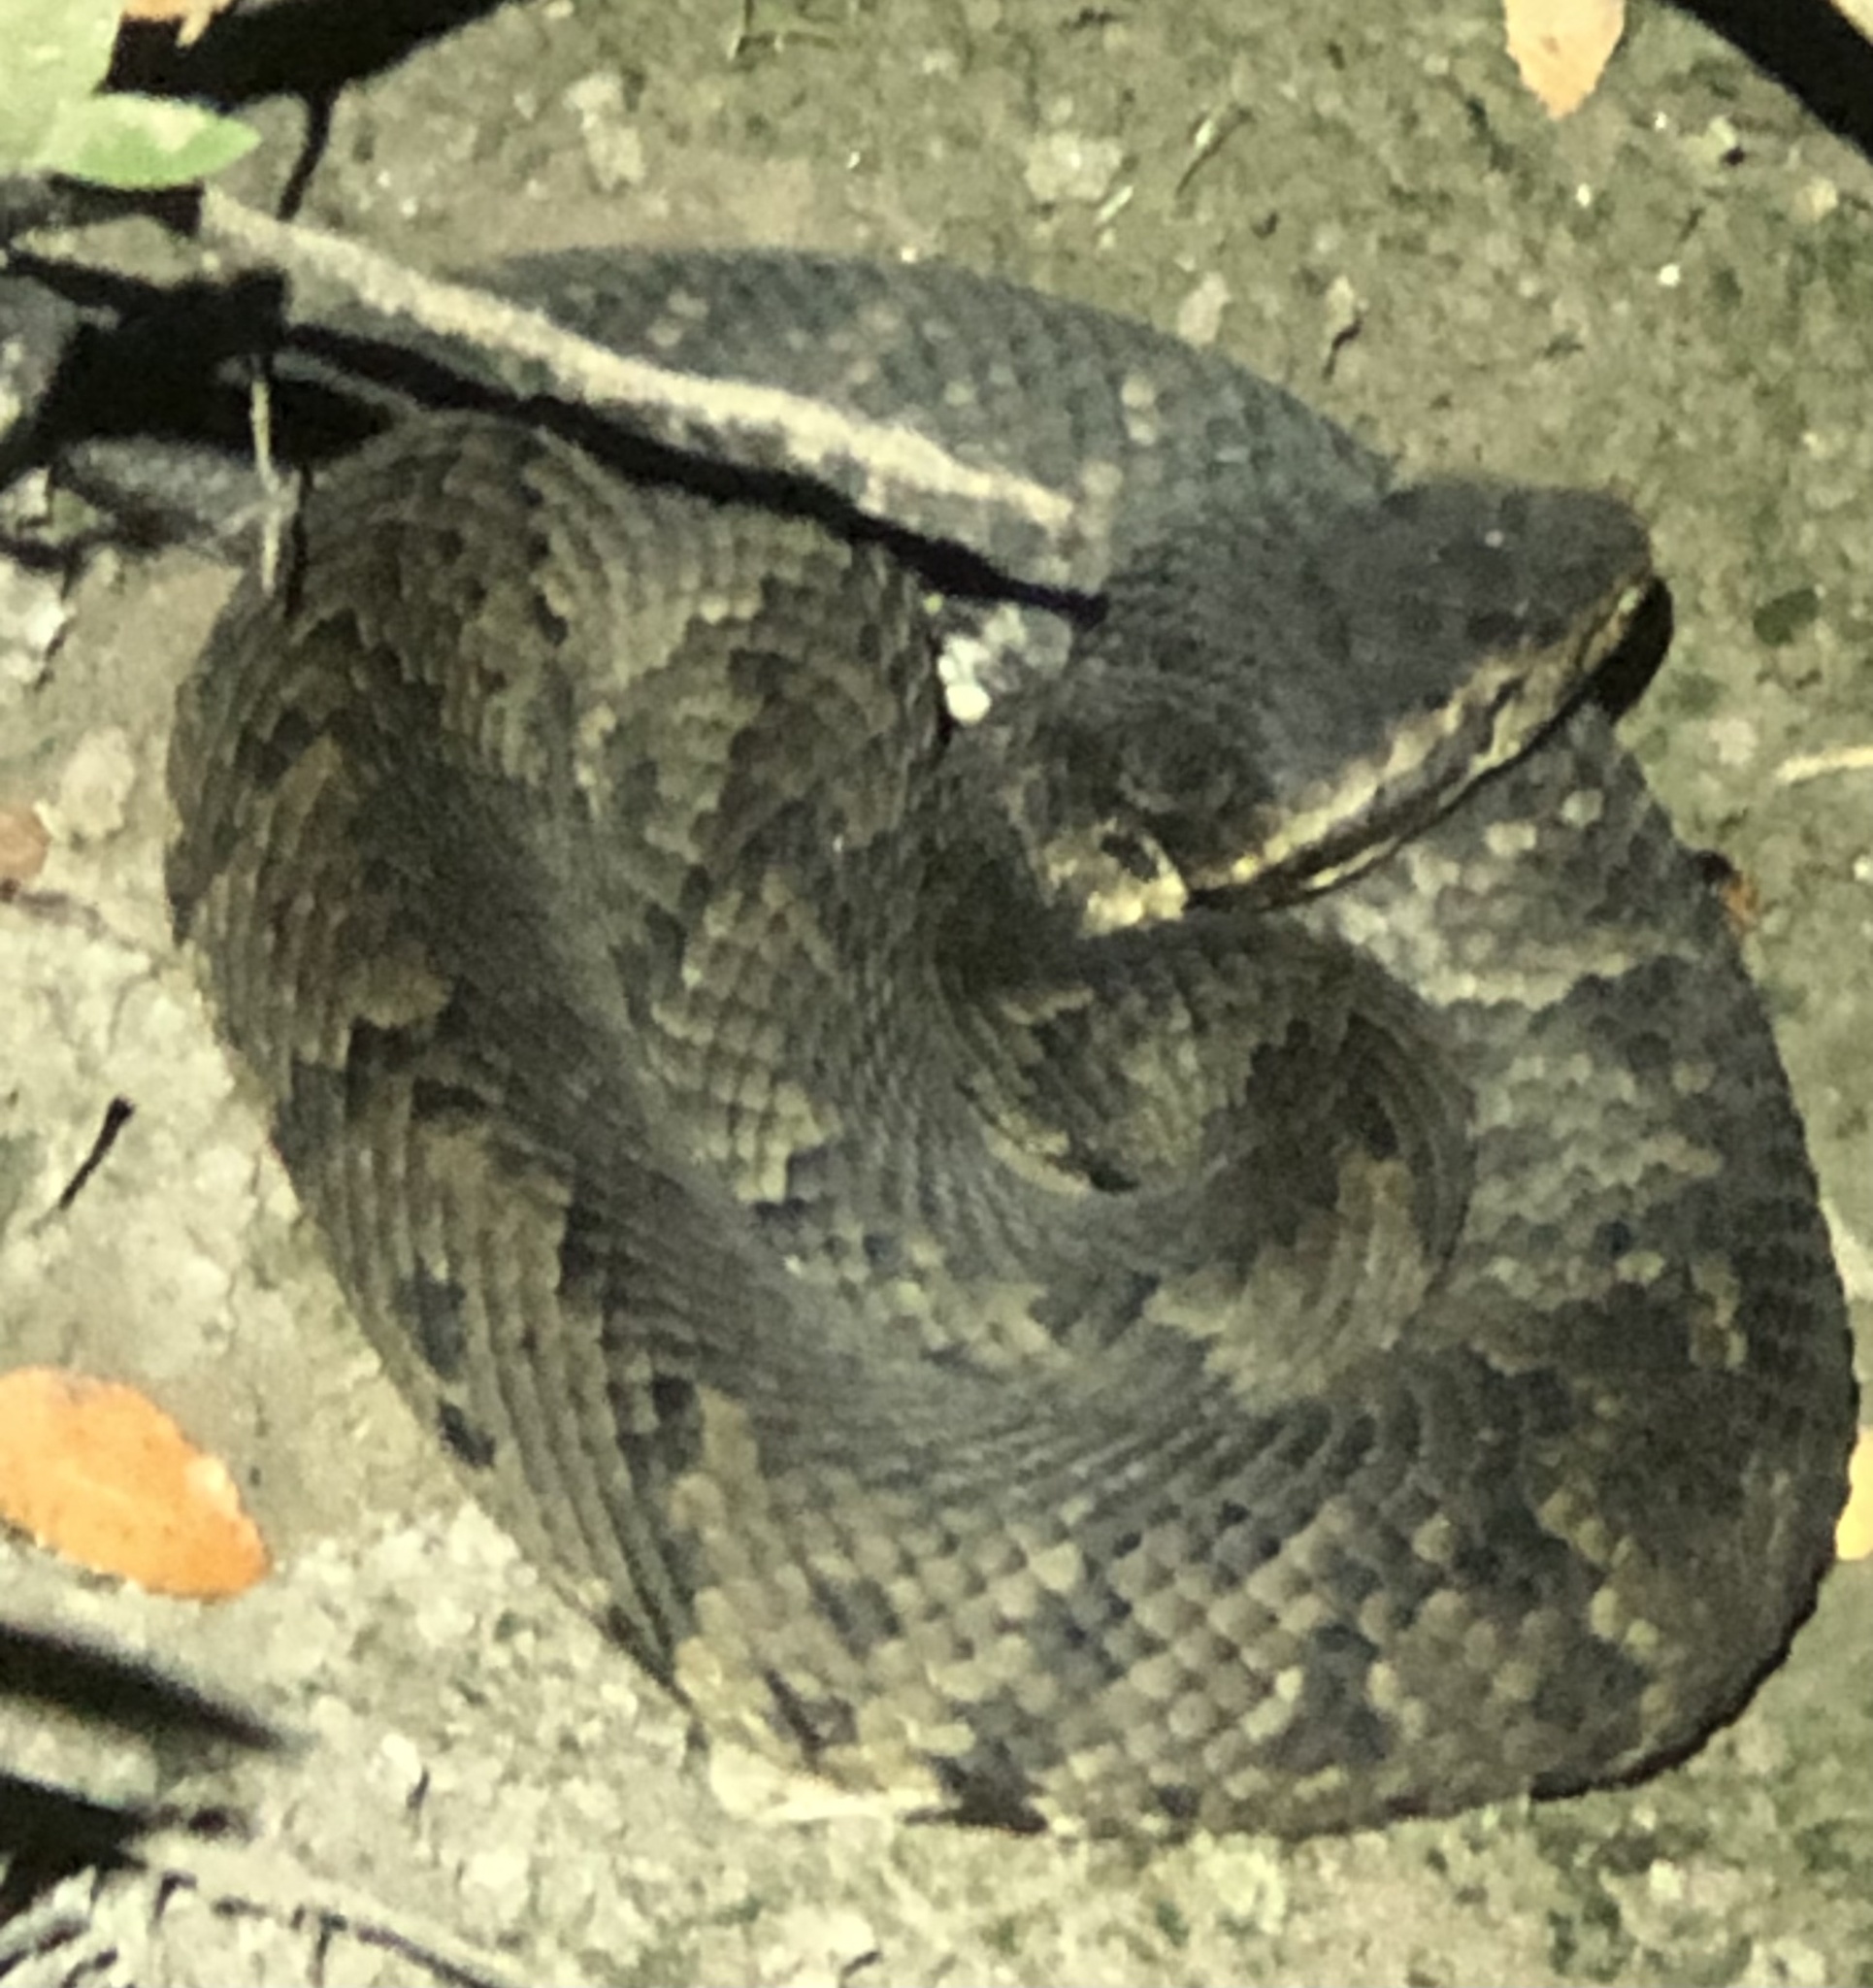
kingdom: Animalia
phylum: Chordata
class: Squamata
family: Viperidae
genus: Agkistrodon
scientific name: Agkistrodon piscivorus
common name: Cottonmouth
